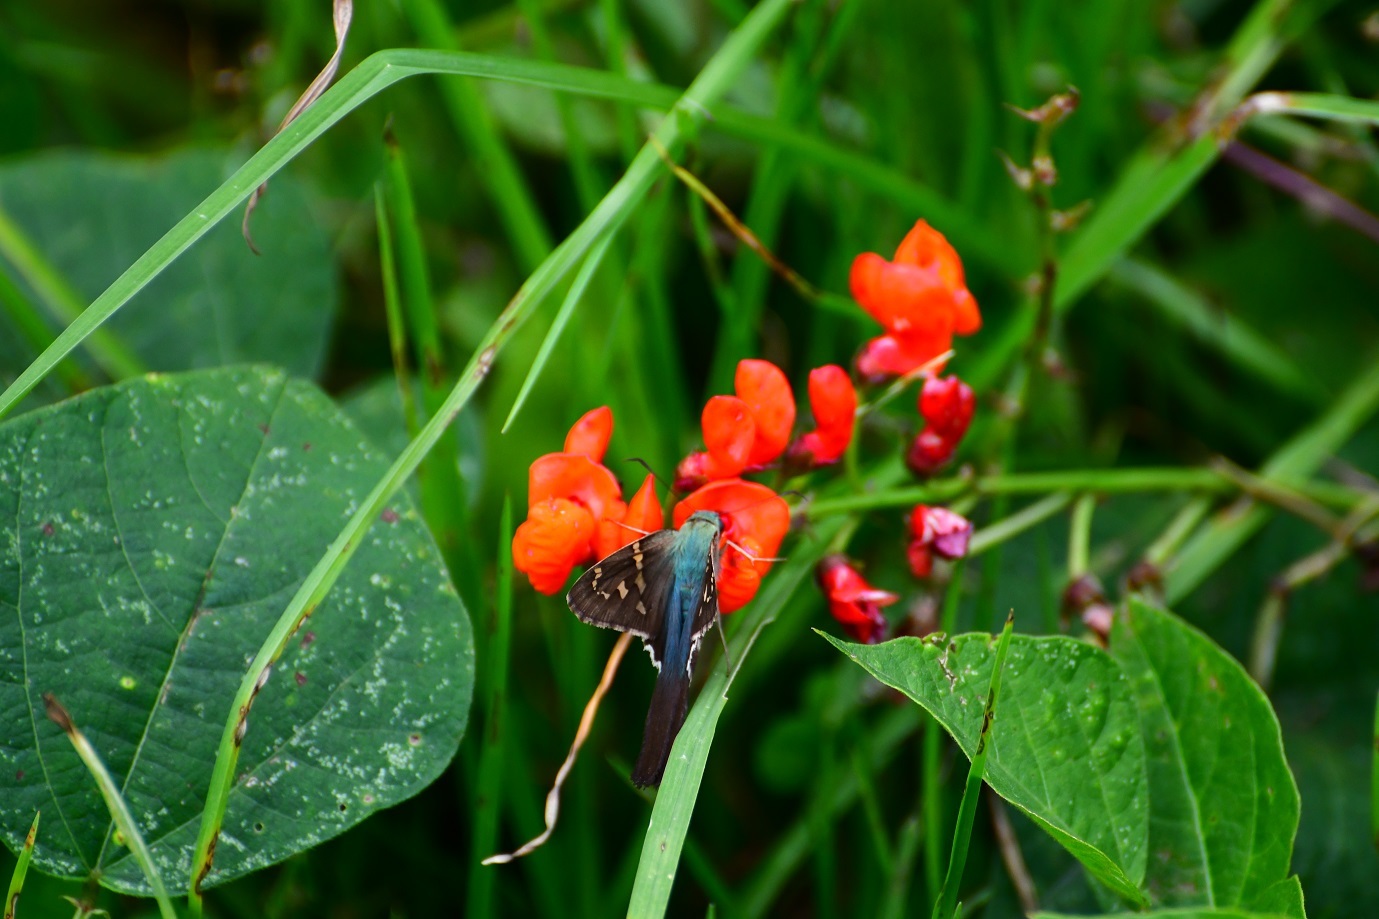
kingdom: Animalia
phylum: Arthropoda
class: Insecta
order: Lepidoptera
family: Hesperiidae
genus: Urbanus
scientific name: Urbanus proteus
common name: Long-tailed skipper
